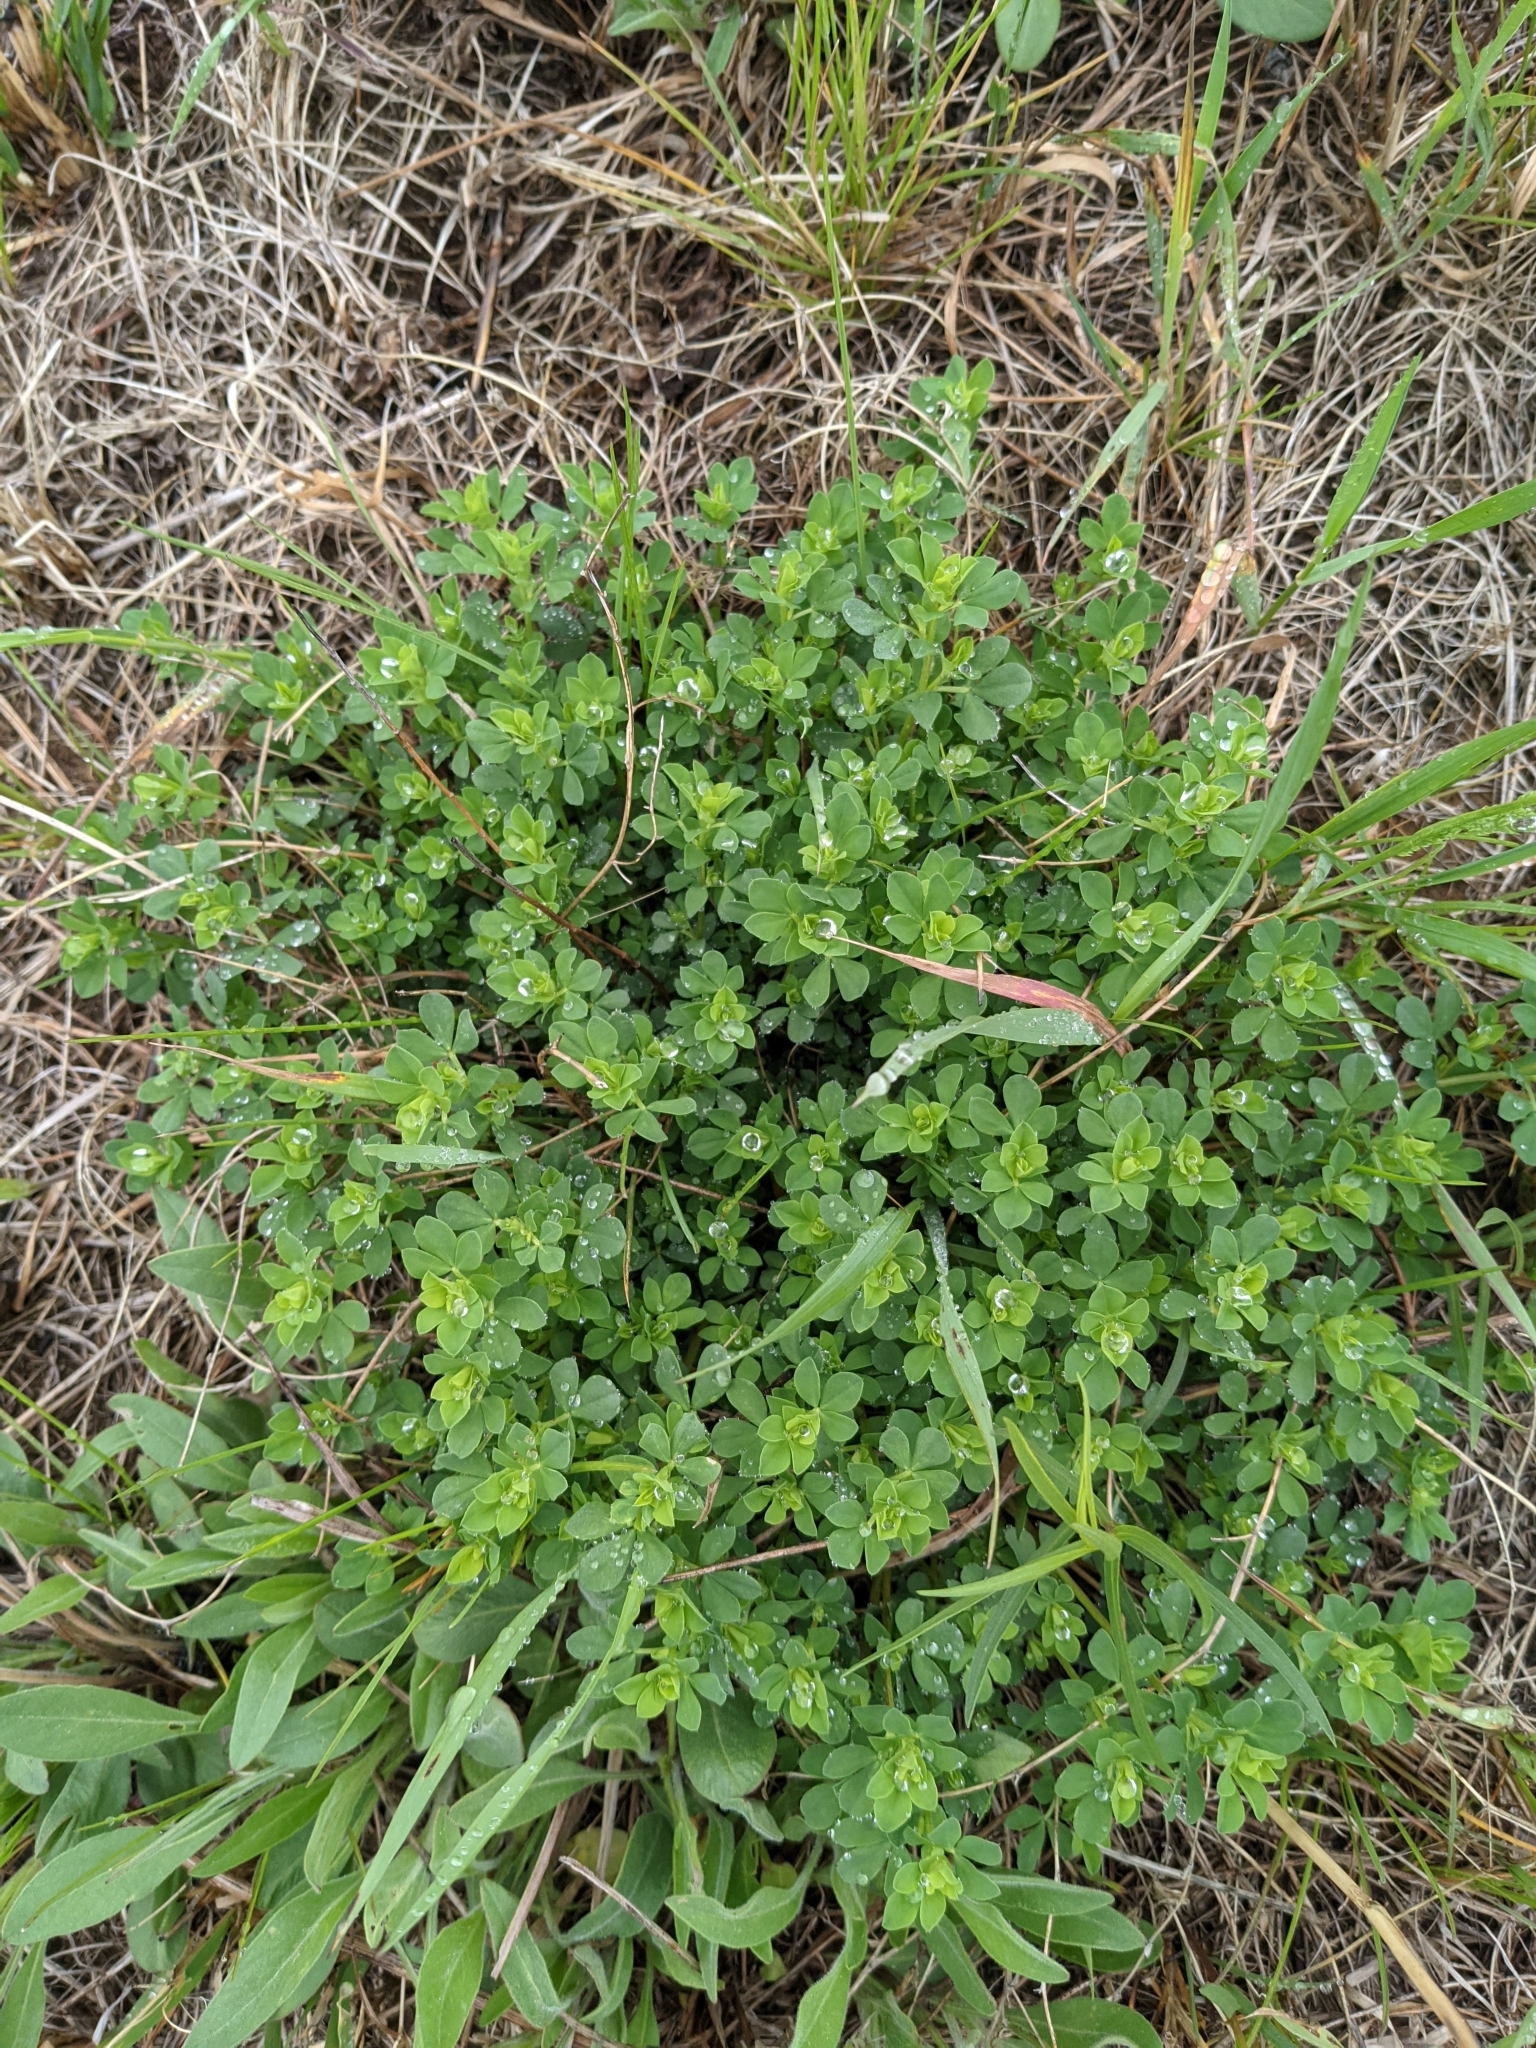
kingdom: Plantae
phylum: Tracheophyta
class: Magnoliopsida
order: Fabales
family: Fabaceae
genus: Lotus
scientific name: Lotus corniculatus
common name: Common bird's-foot-trefoil
